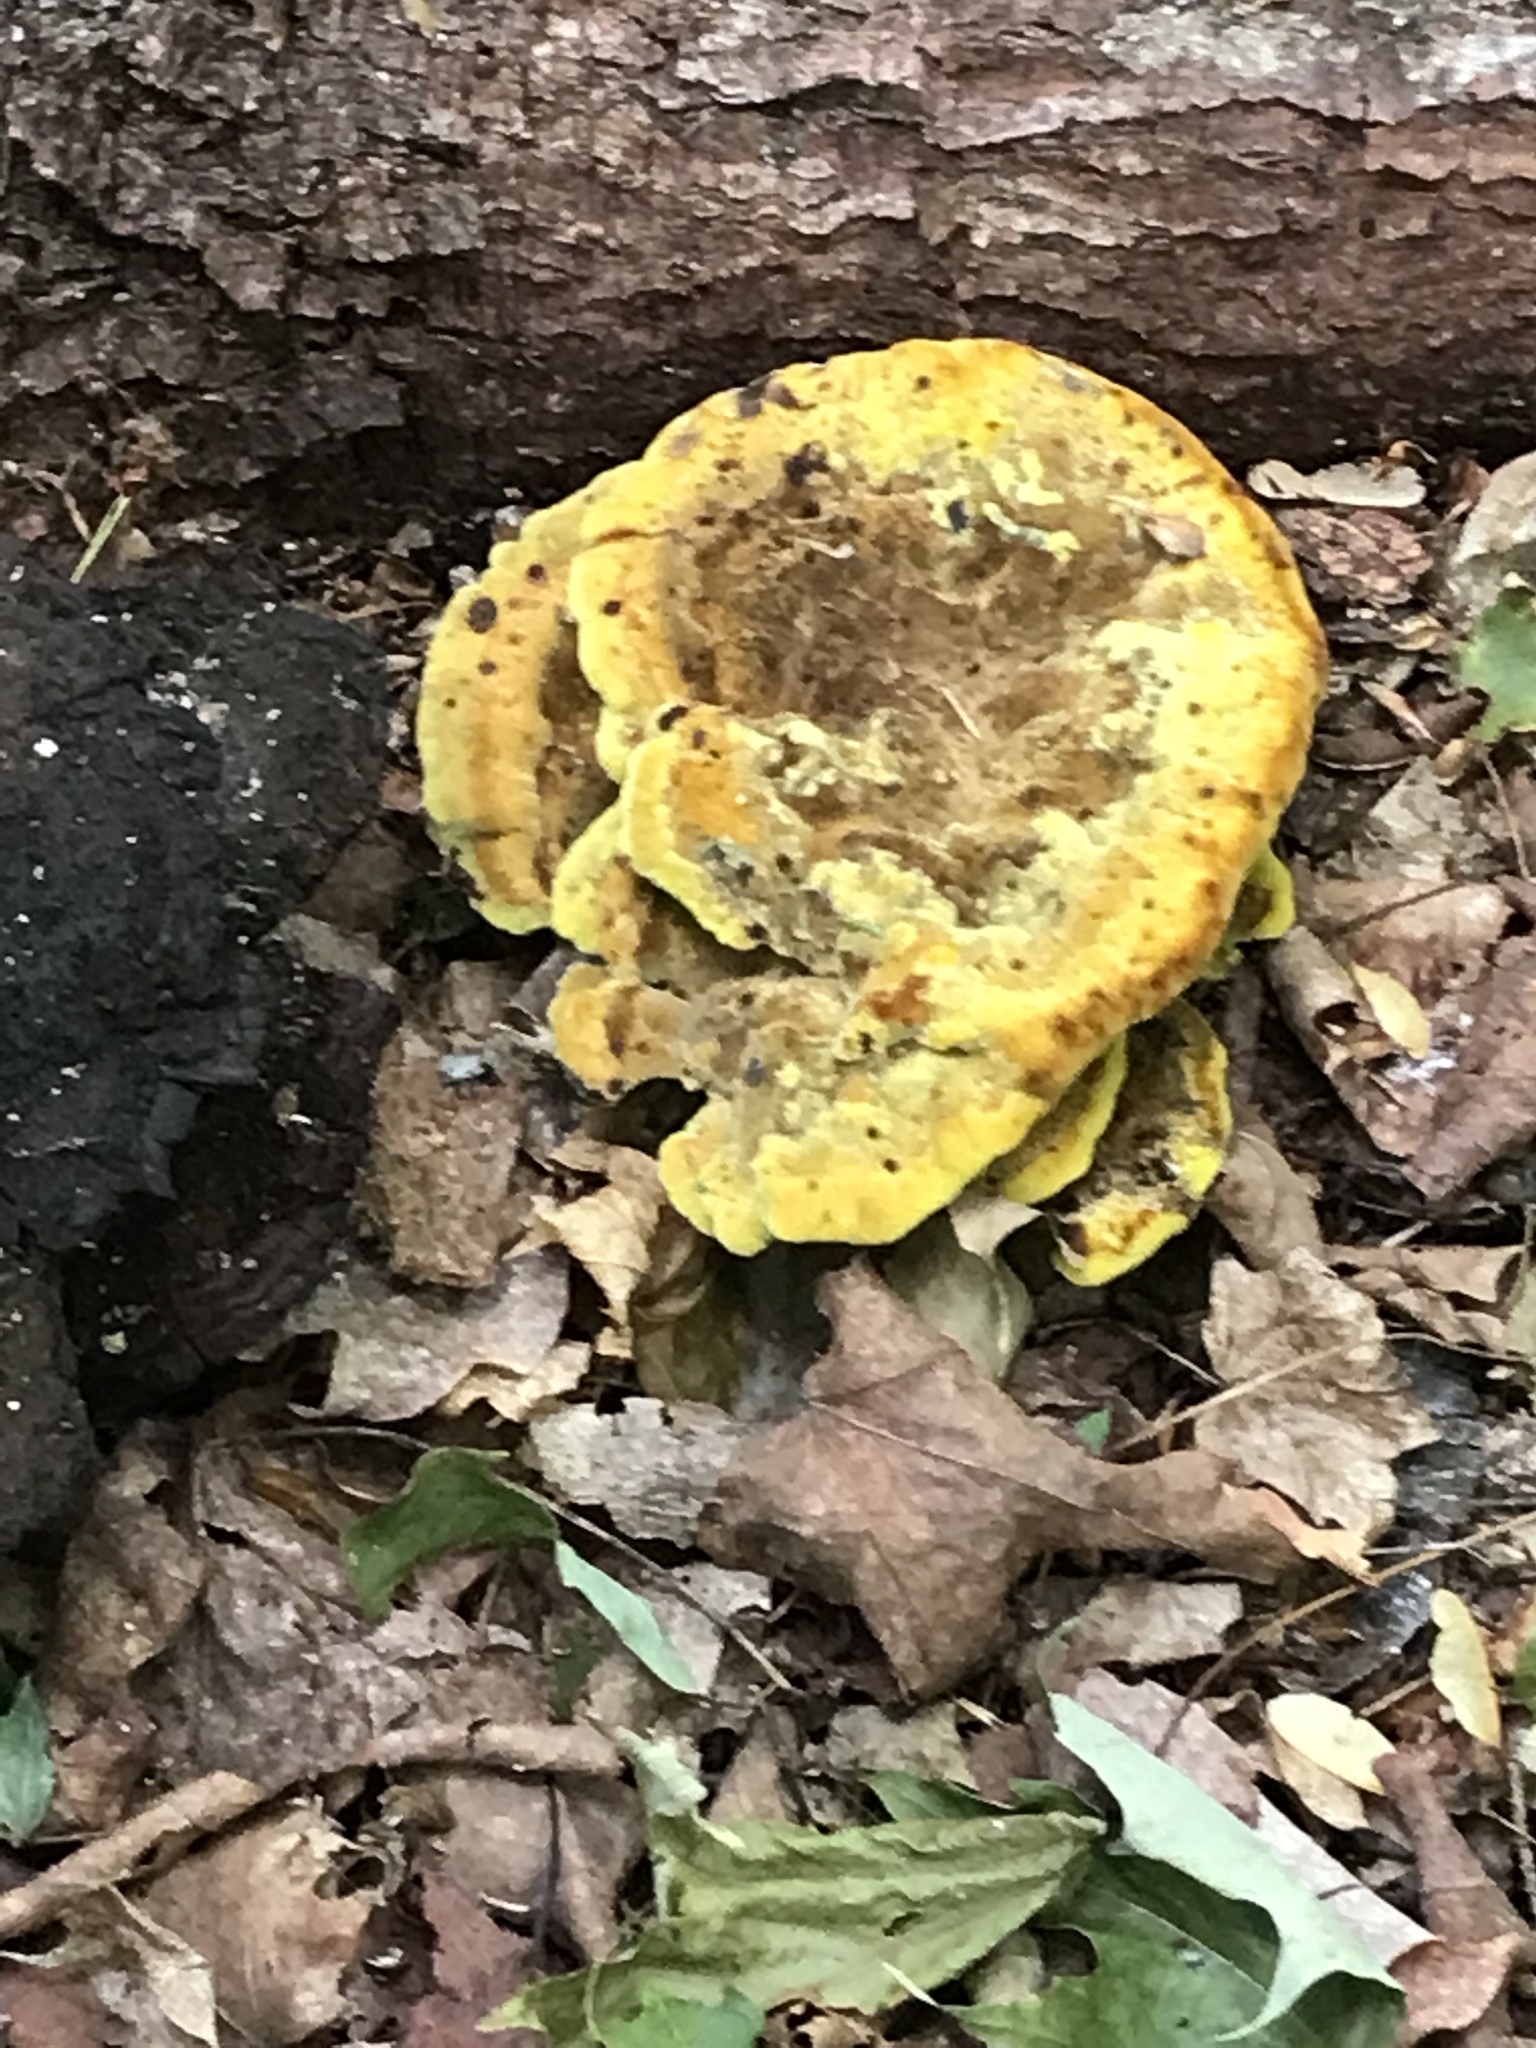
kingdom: Fungi
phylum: Basidiomycota
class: Agaricomycetes
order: Polyporales
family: Laetiporaceae
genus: Phaeolus
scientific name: Phaeolus schweinitzii
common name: Dyer's mazegill
